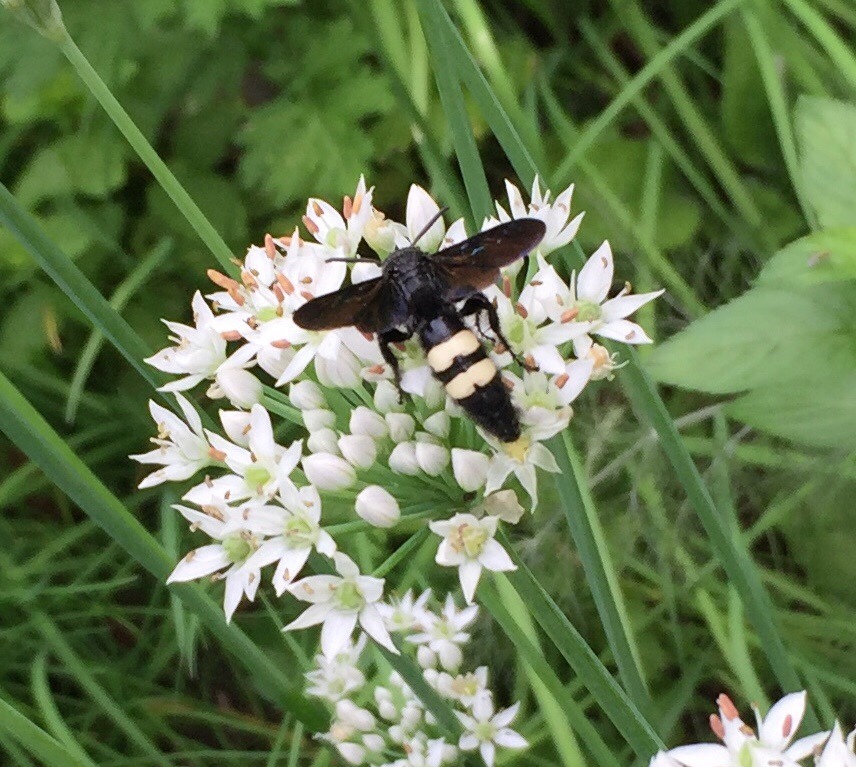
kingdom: Animalia
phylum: Arthropoda
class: Insecta
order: Hymenoptera
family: Scoliidae
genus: Scolia
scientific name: Scolia bicincta
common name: Double-banded scoliid wasp
